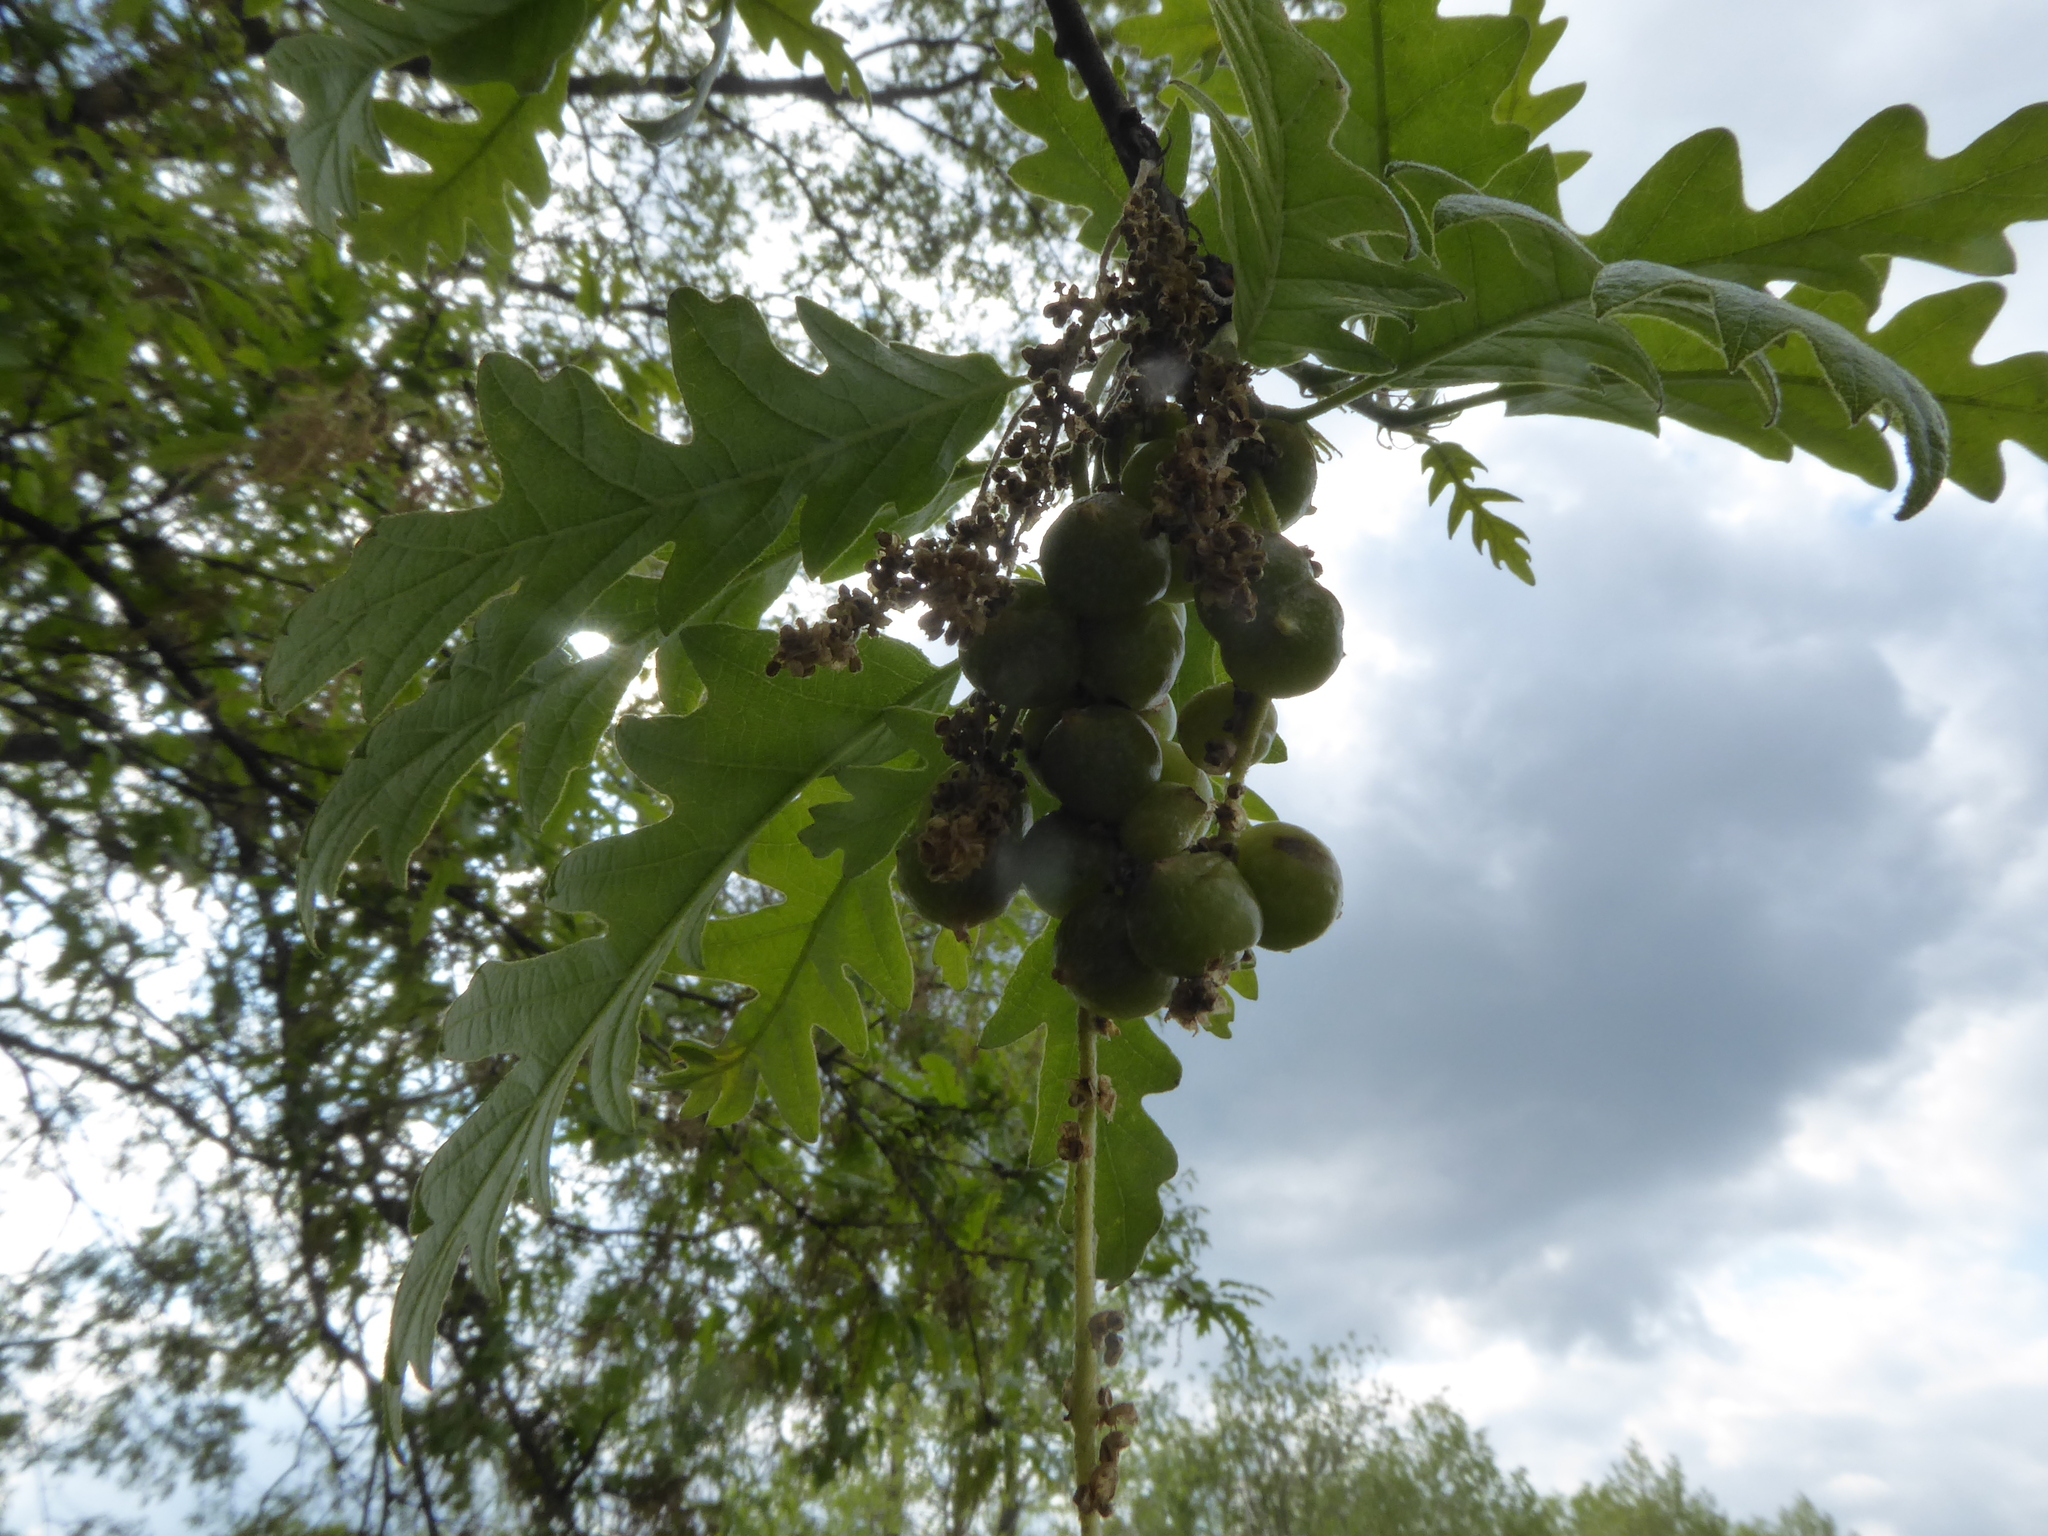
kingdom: Animalia
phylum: Arthropoda
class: Insecta
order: Hymenoptera
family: Cynipidae
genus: Andricus
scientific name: Andricus grossulariae
